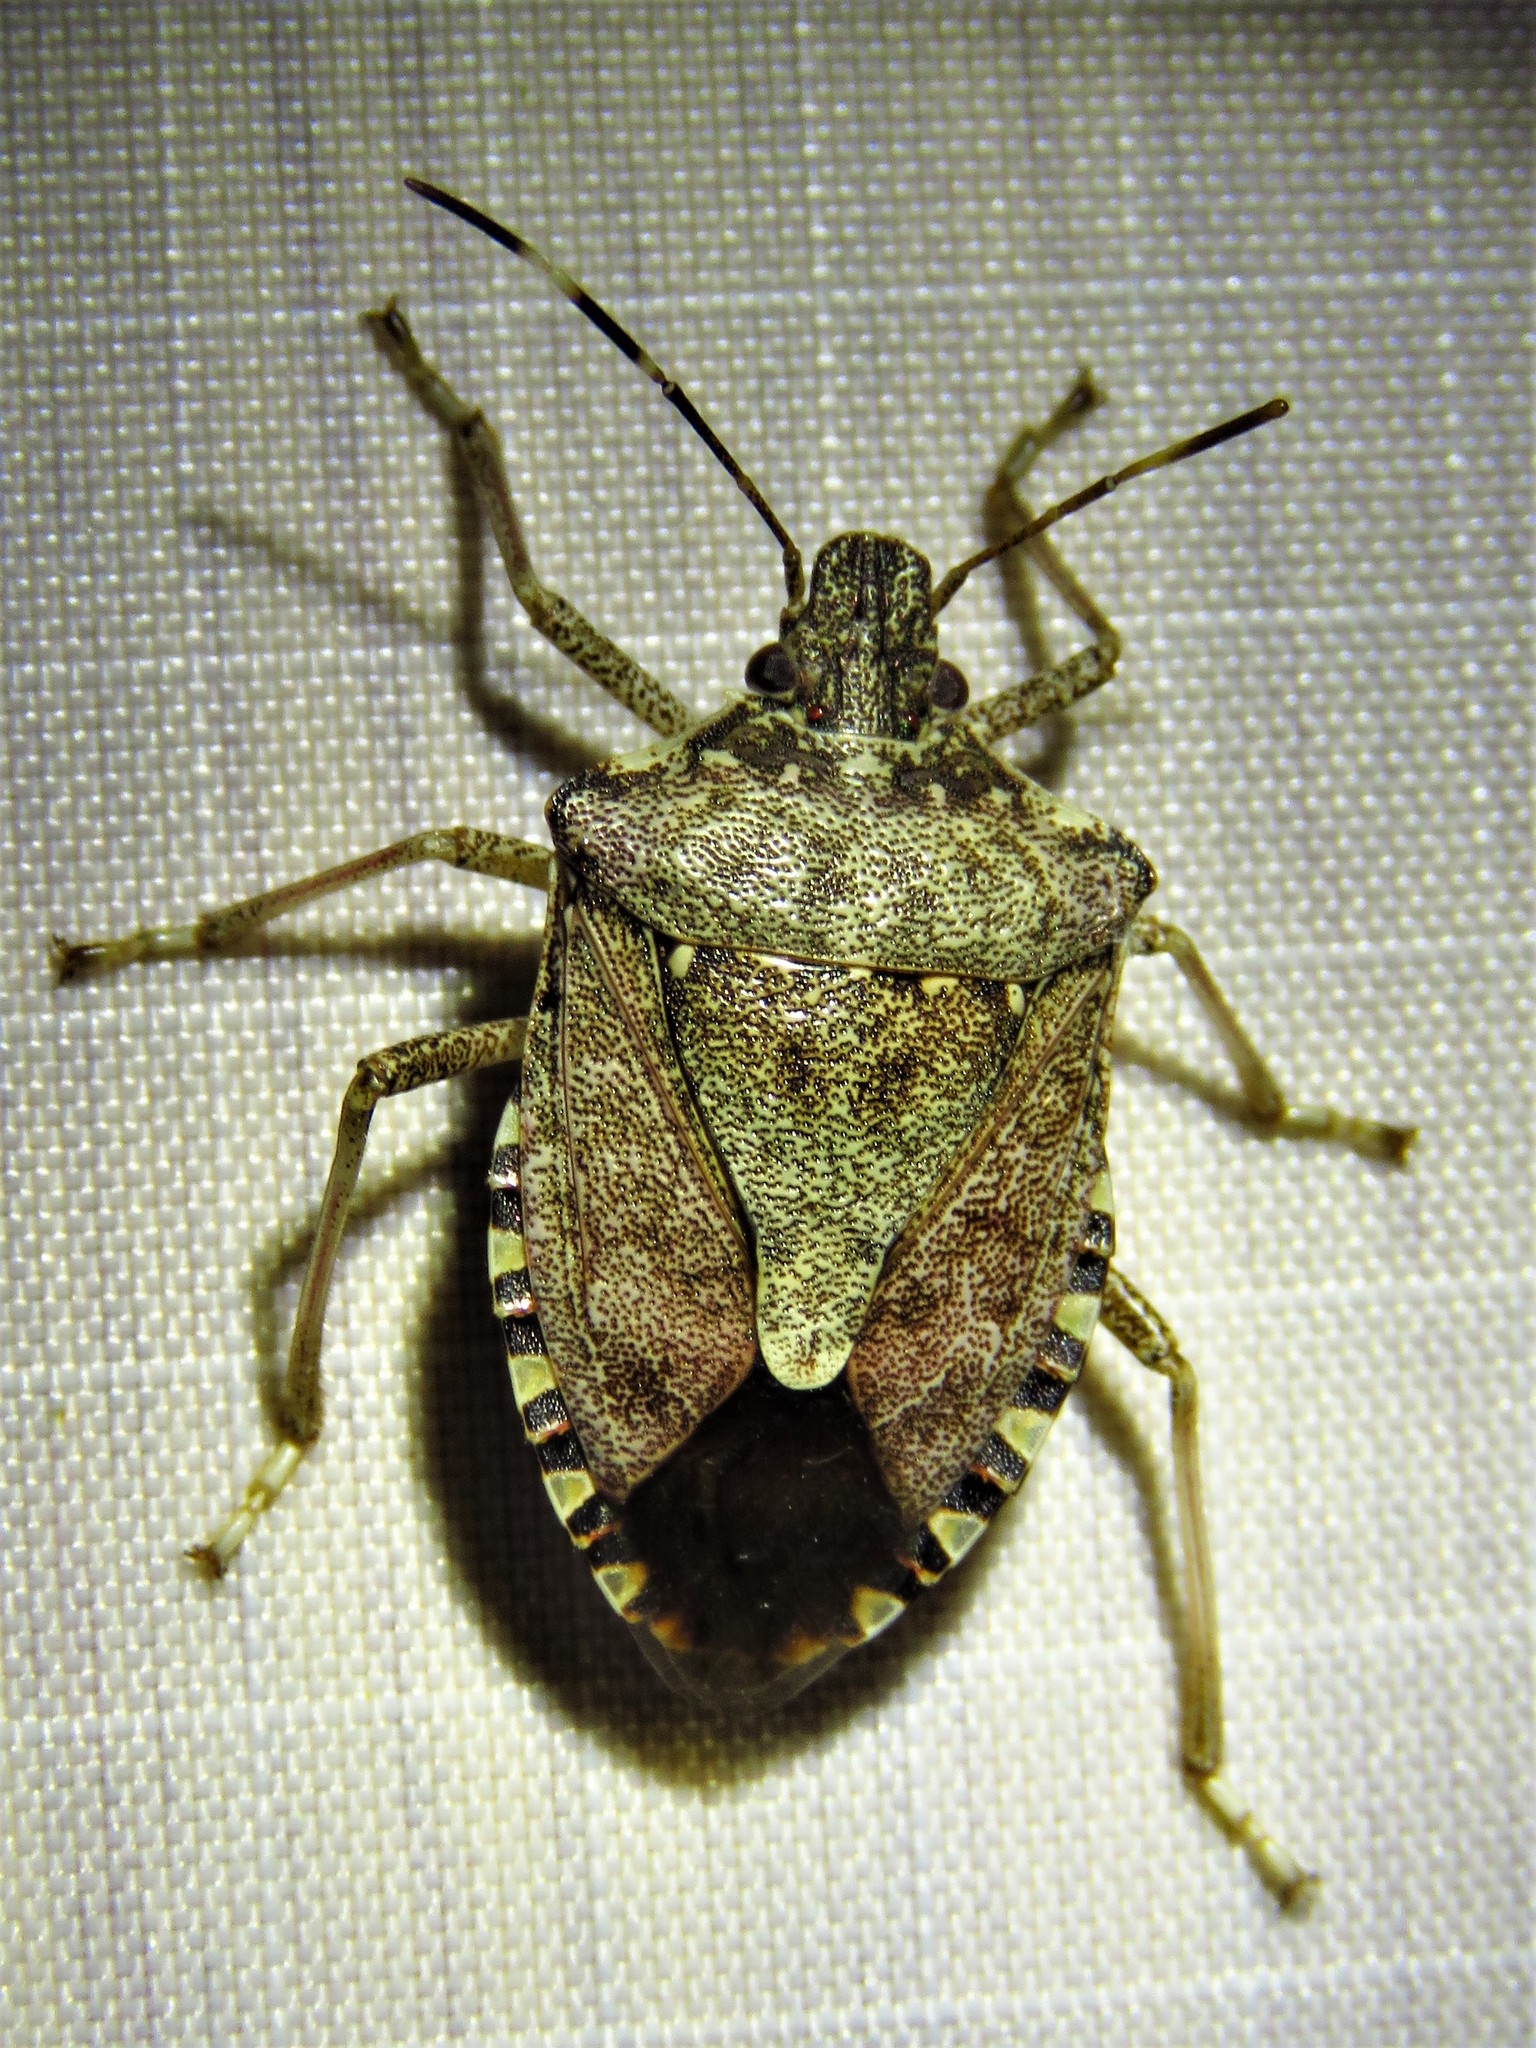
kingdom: Animalia
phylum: Arthropoda
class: Insecta
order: Hemiptera
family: Pentatomidae
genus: Halyomorpha
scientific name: Halyomorpha halys
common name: Brown marmorated stink bug
